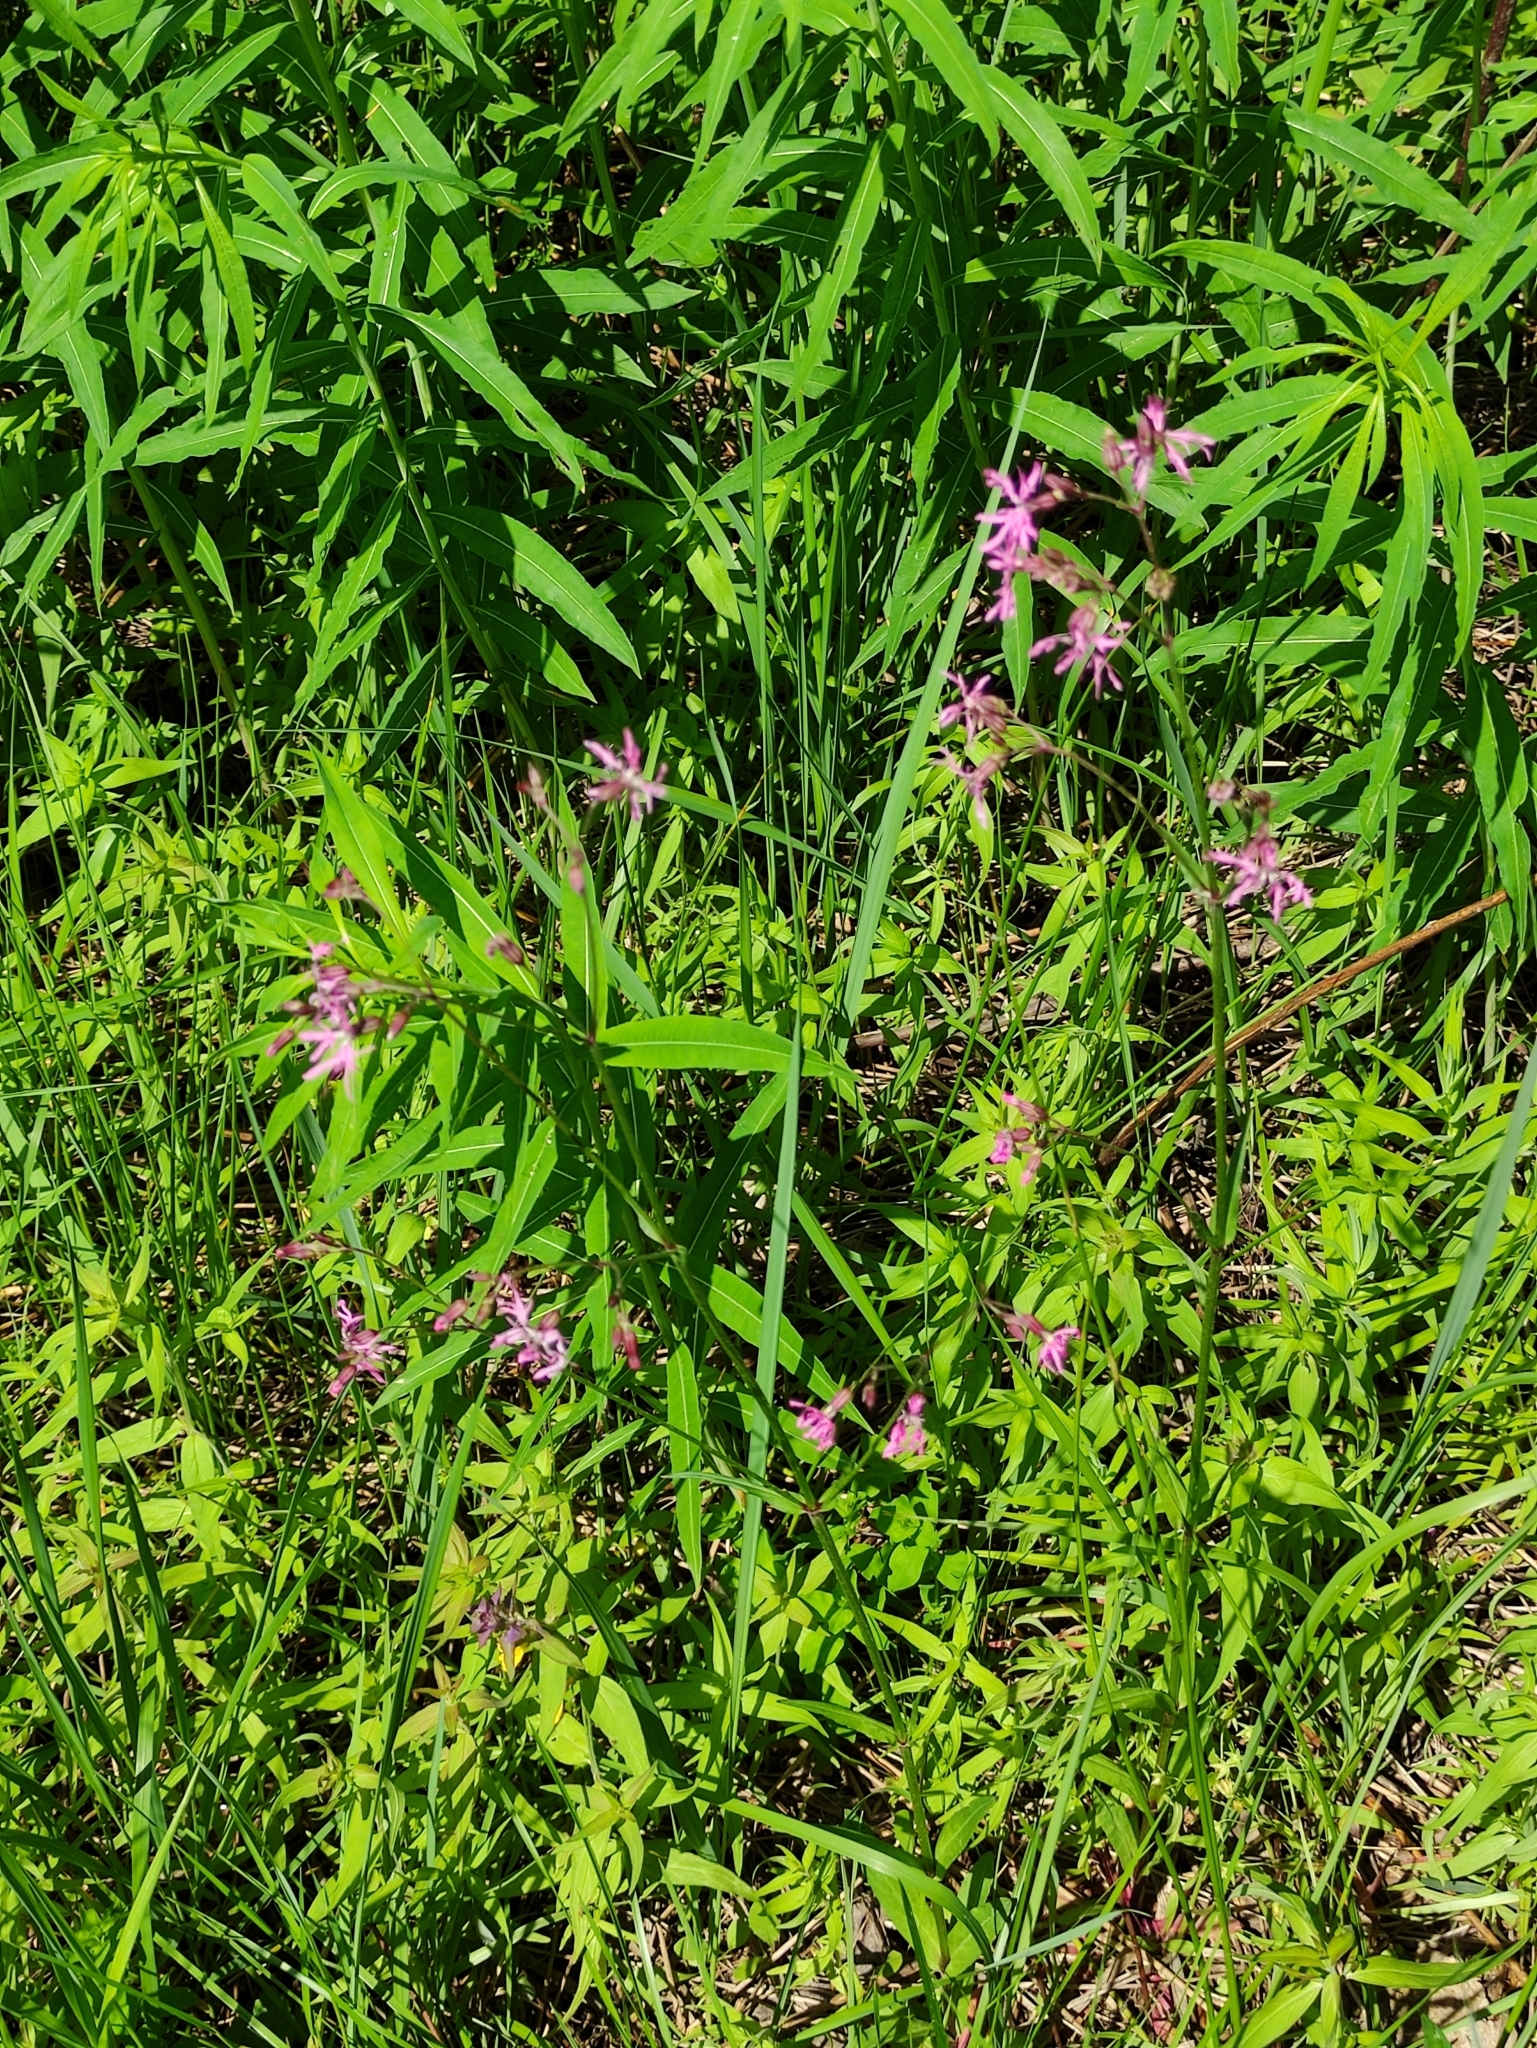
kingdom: Plantae
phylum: Tracheophyta
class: Magnoliopsida
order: Caryophyllales
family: Caryophyllaceae
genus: Silene
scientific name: Silene flos-cuculi
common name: Ragged-robin
